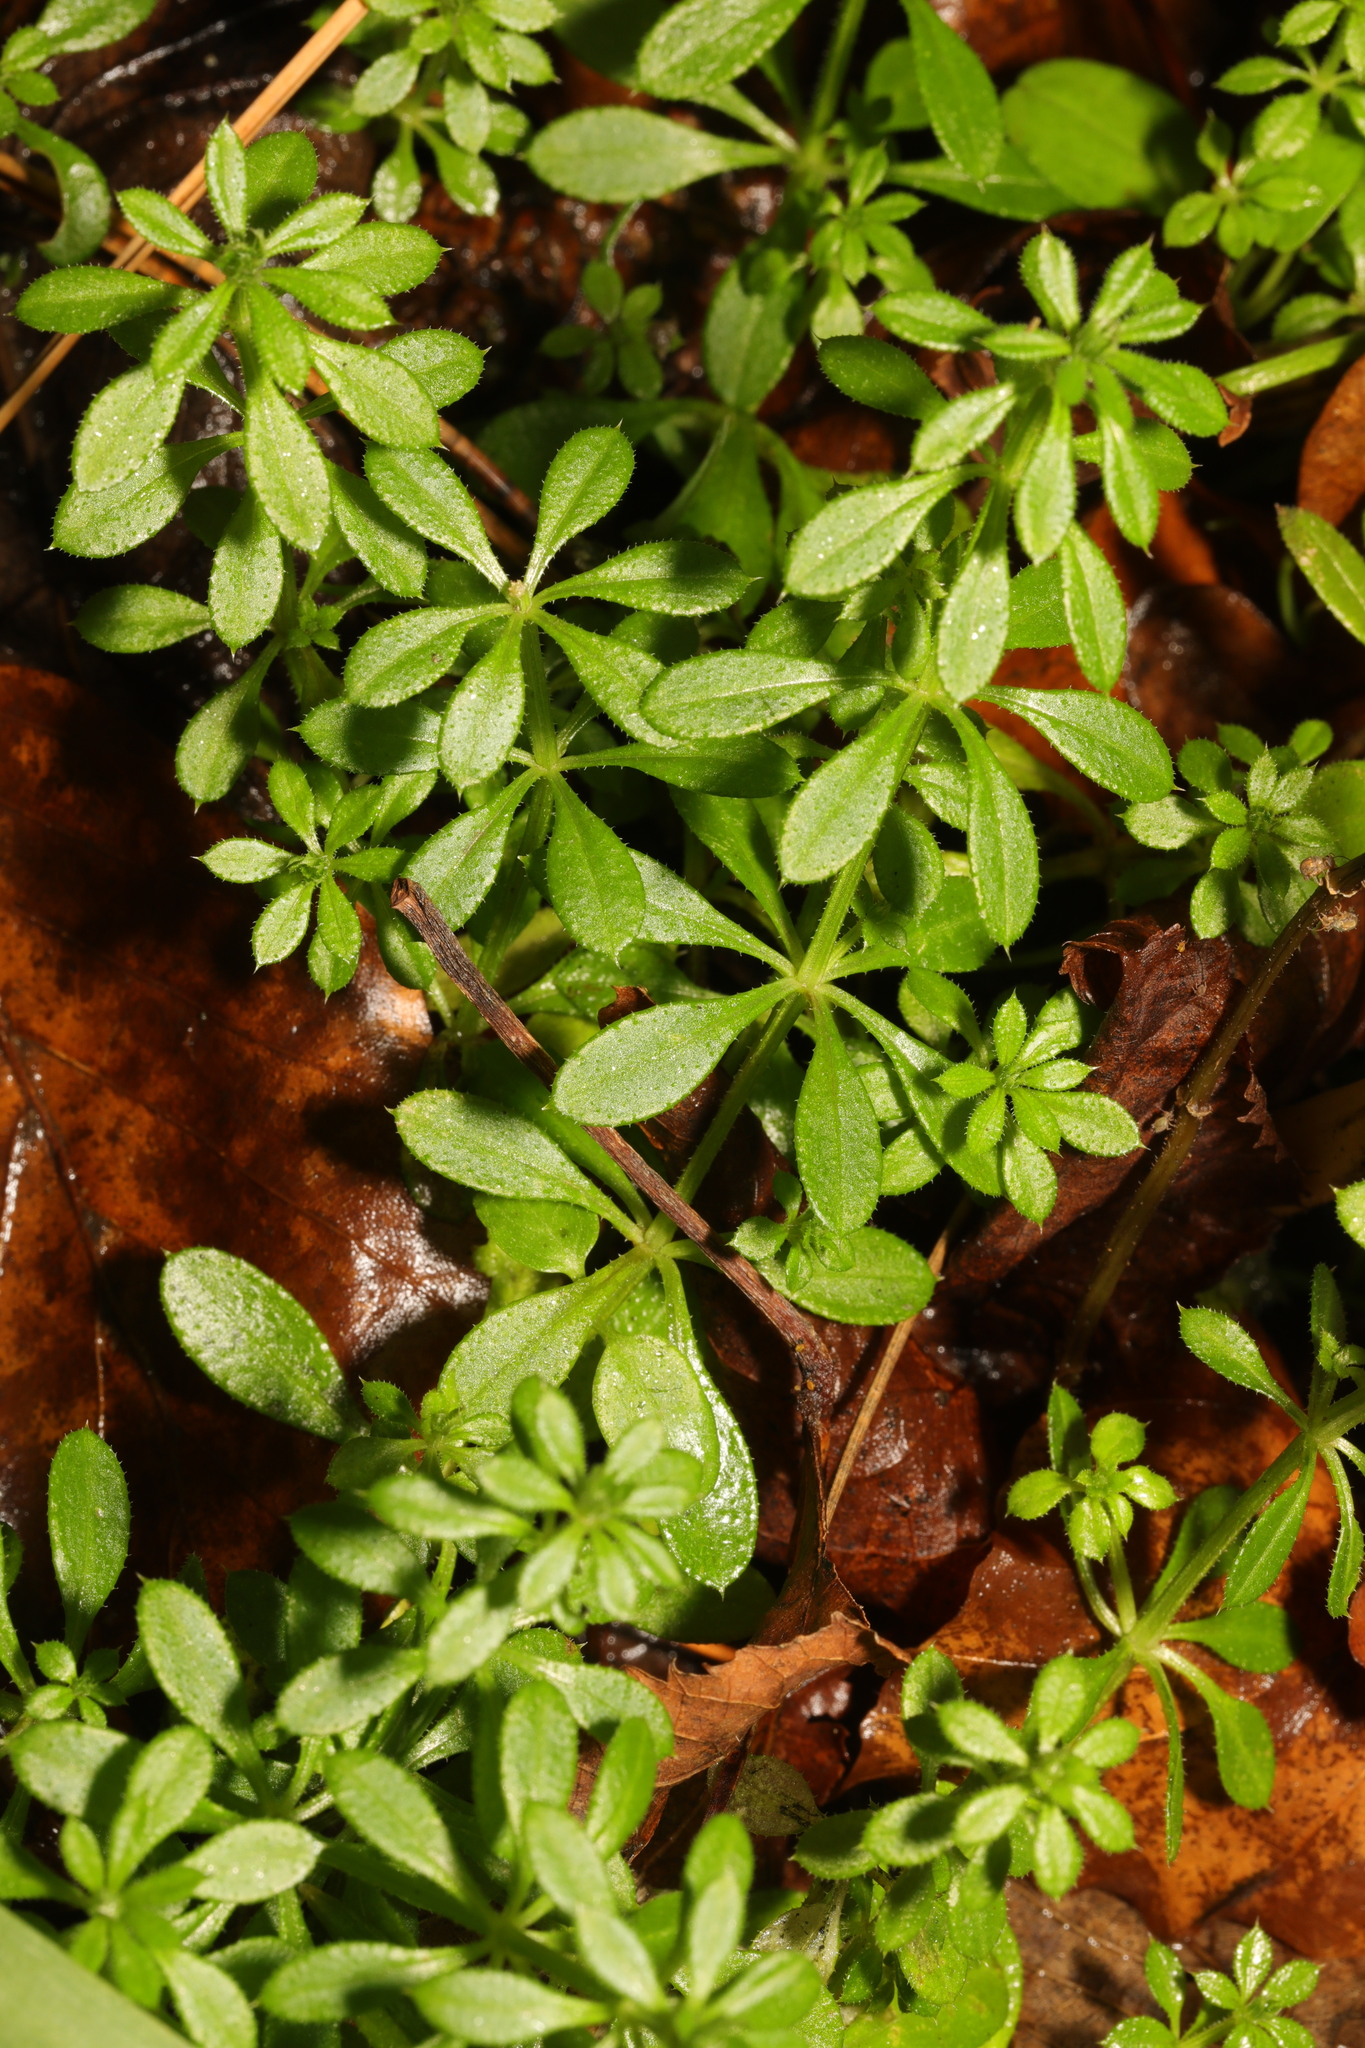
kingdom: Plantae
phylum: Tracheophyta
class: Magnoliopsida
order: Gentianales
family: Rubiaceae
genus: Galium
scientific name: Galium aparine
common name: Cleavers
